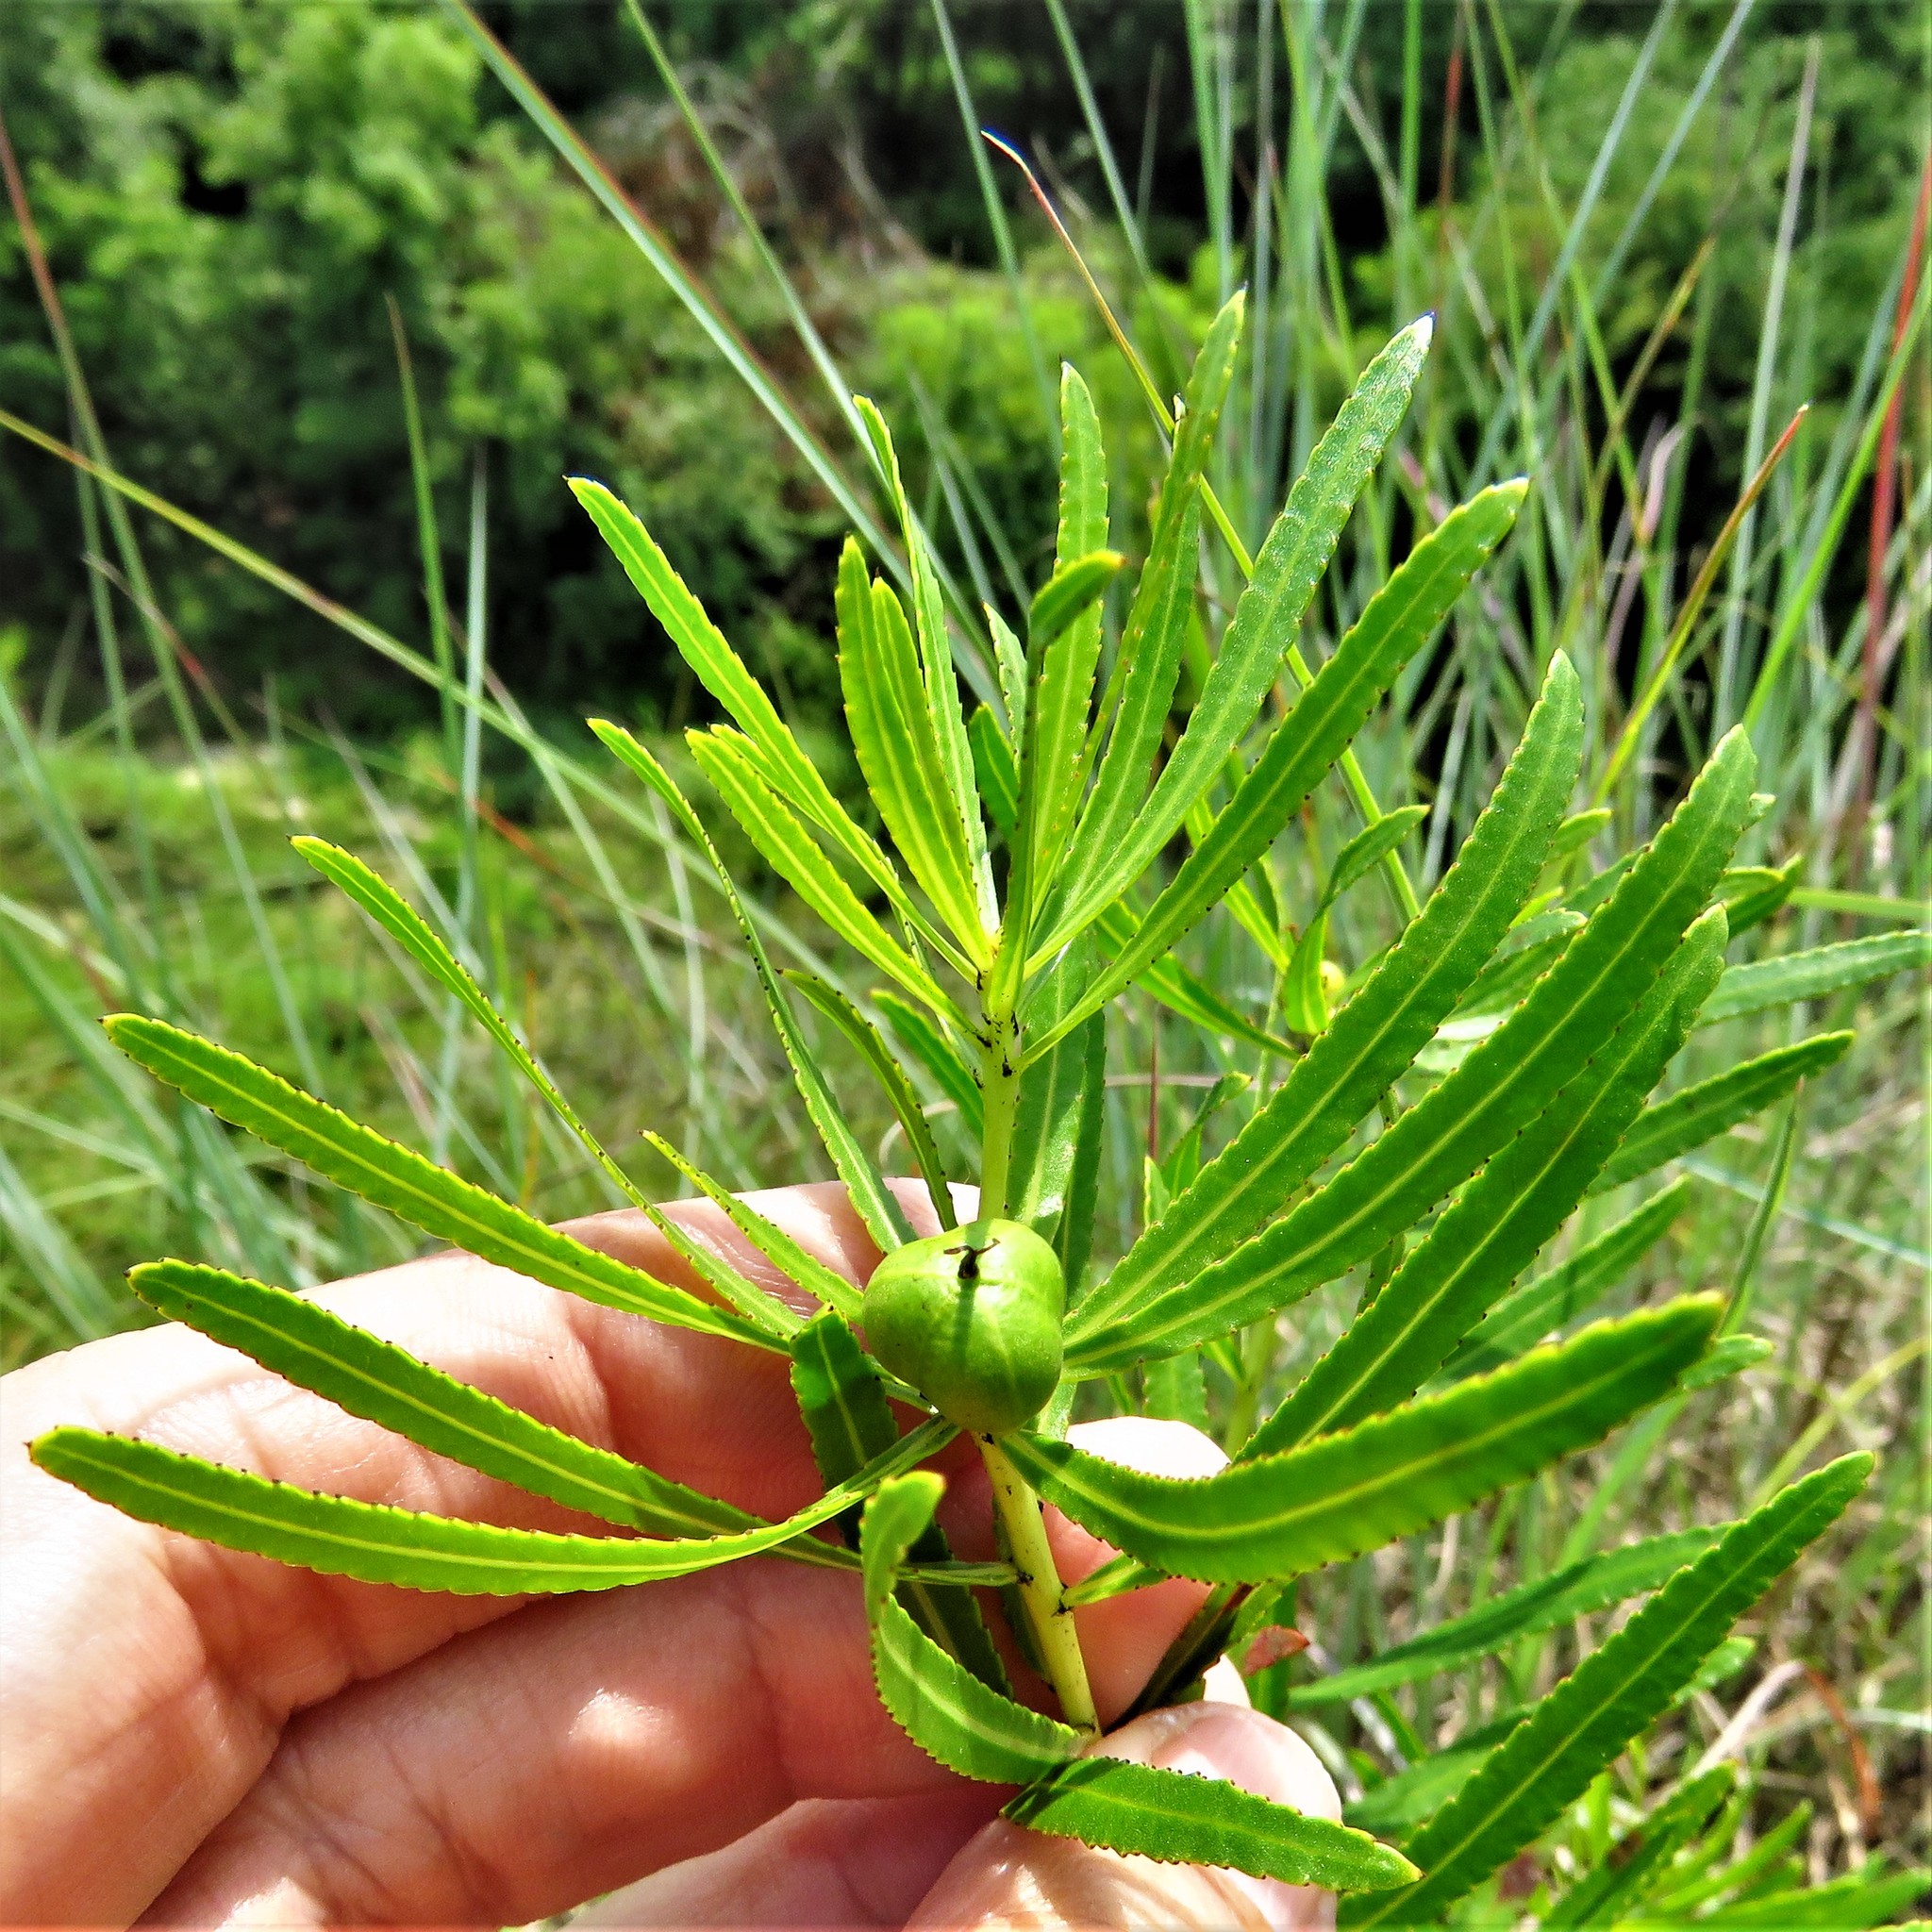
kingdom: Plantae
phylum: Tracheophyta
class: Magnoliopsida
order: Malpighiales
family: Euphorbiaceae
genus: Stillingia
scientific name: Stillingia texana
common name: Texas stillingia
